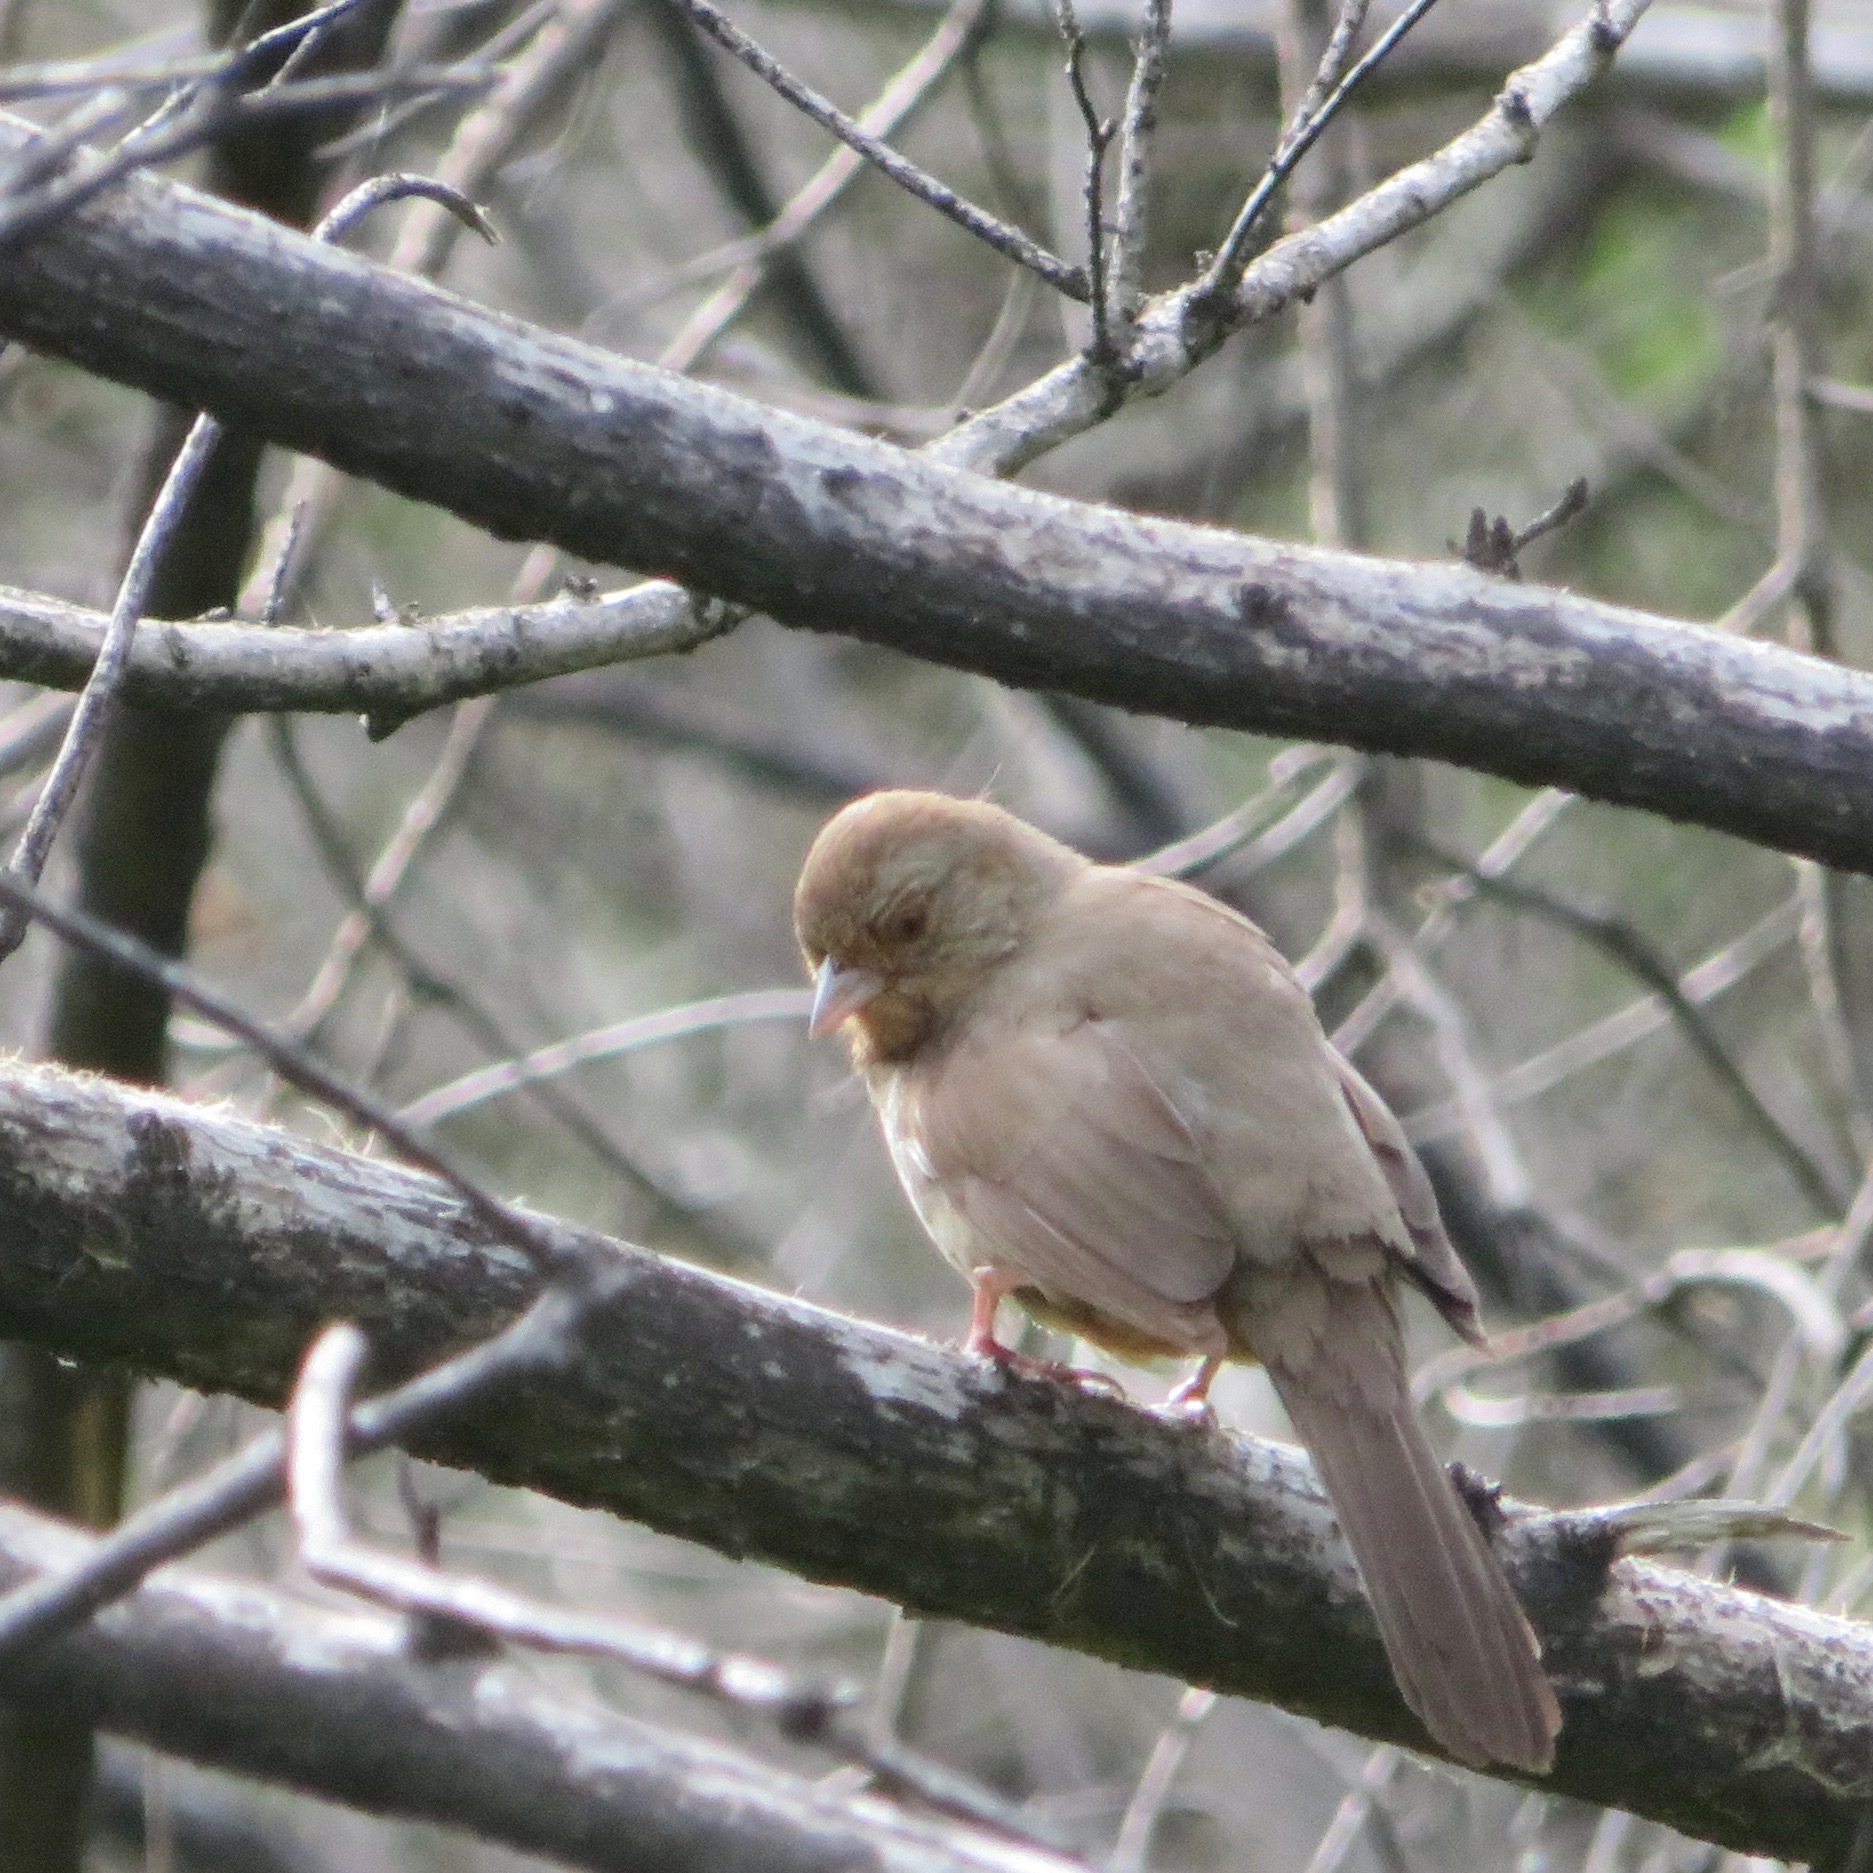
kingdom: Animalia
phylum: Chordata
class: Aves
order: Passeriformes
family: Passerellidae
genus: Melozone
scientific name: Melozone crissalis
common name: California towhee
